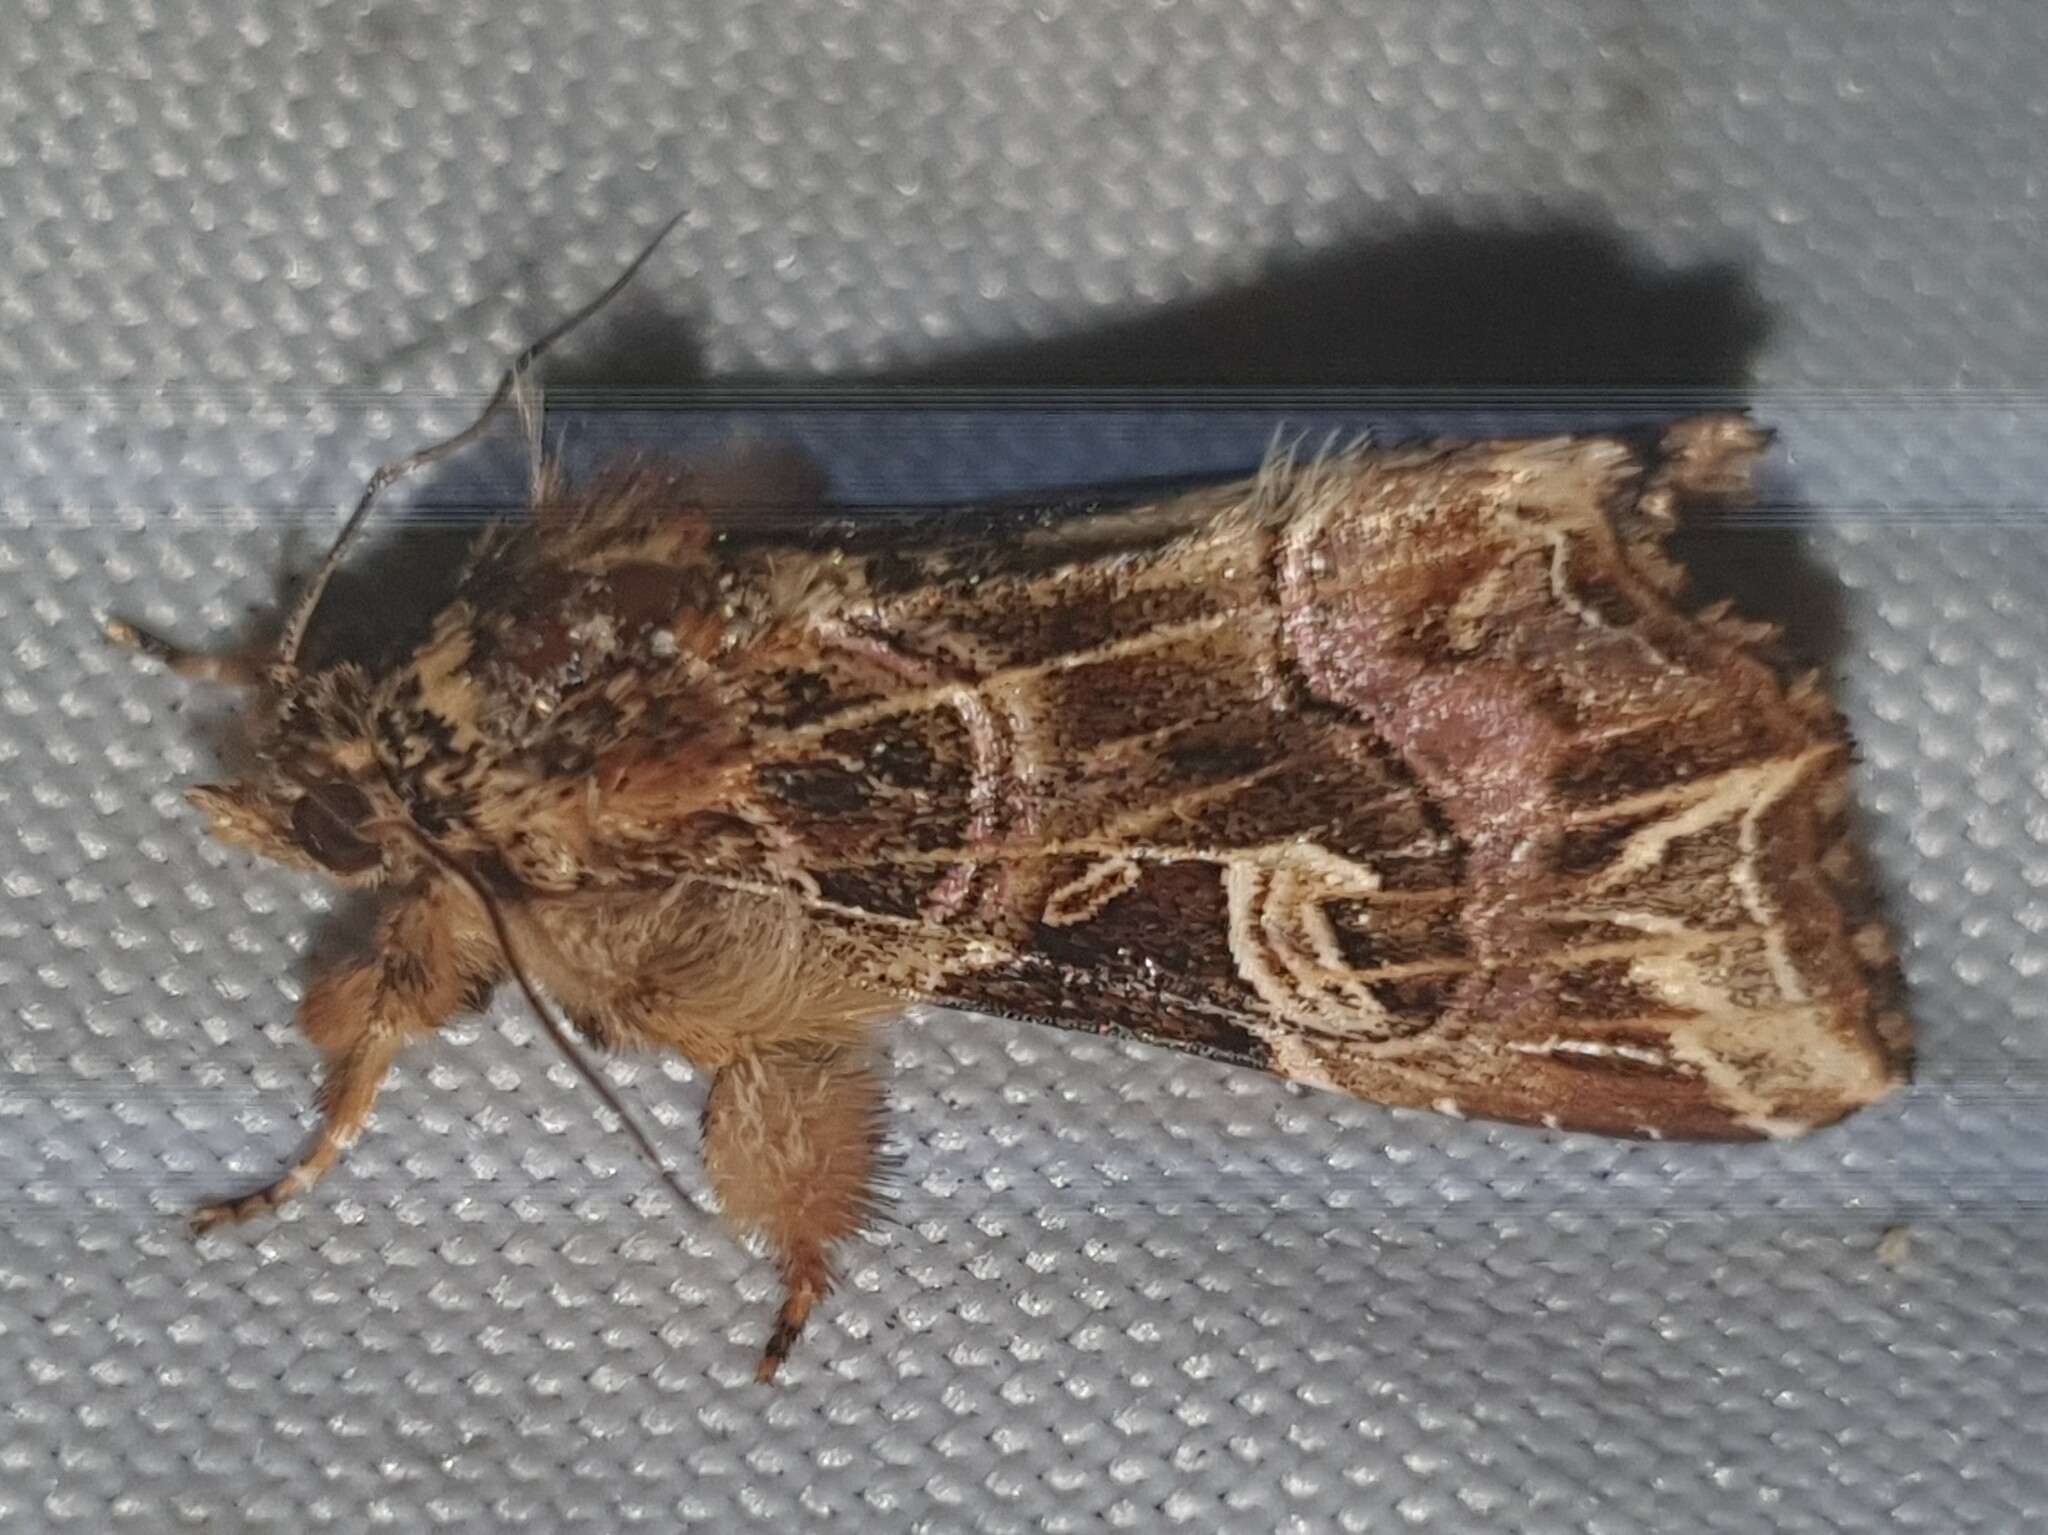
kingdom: Animalia
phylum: Arthropoda
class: Insecta
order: Lepidoptera
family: Noctuidae
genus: Callopistria
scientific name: Callopistria juventina
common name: Latin
